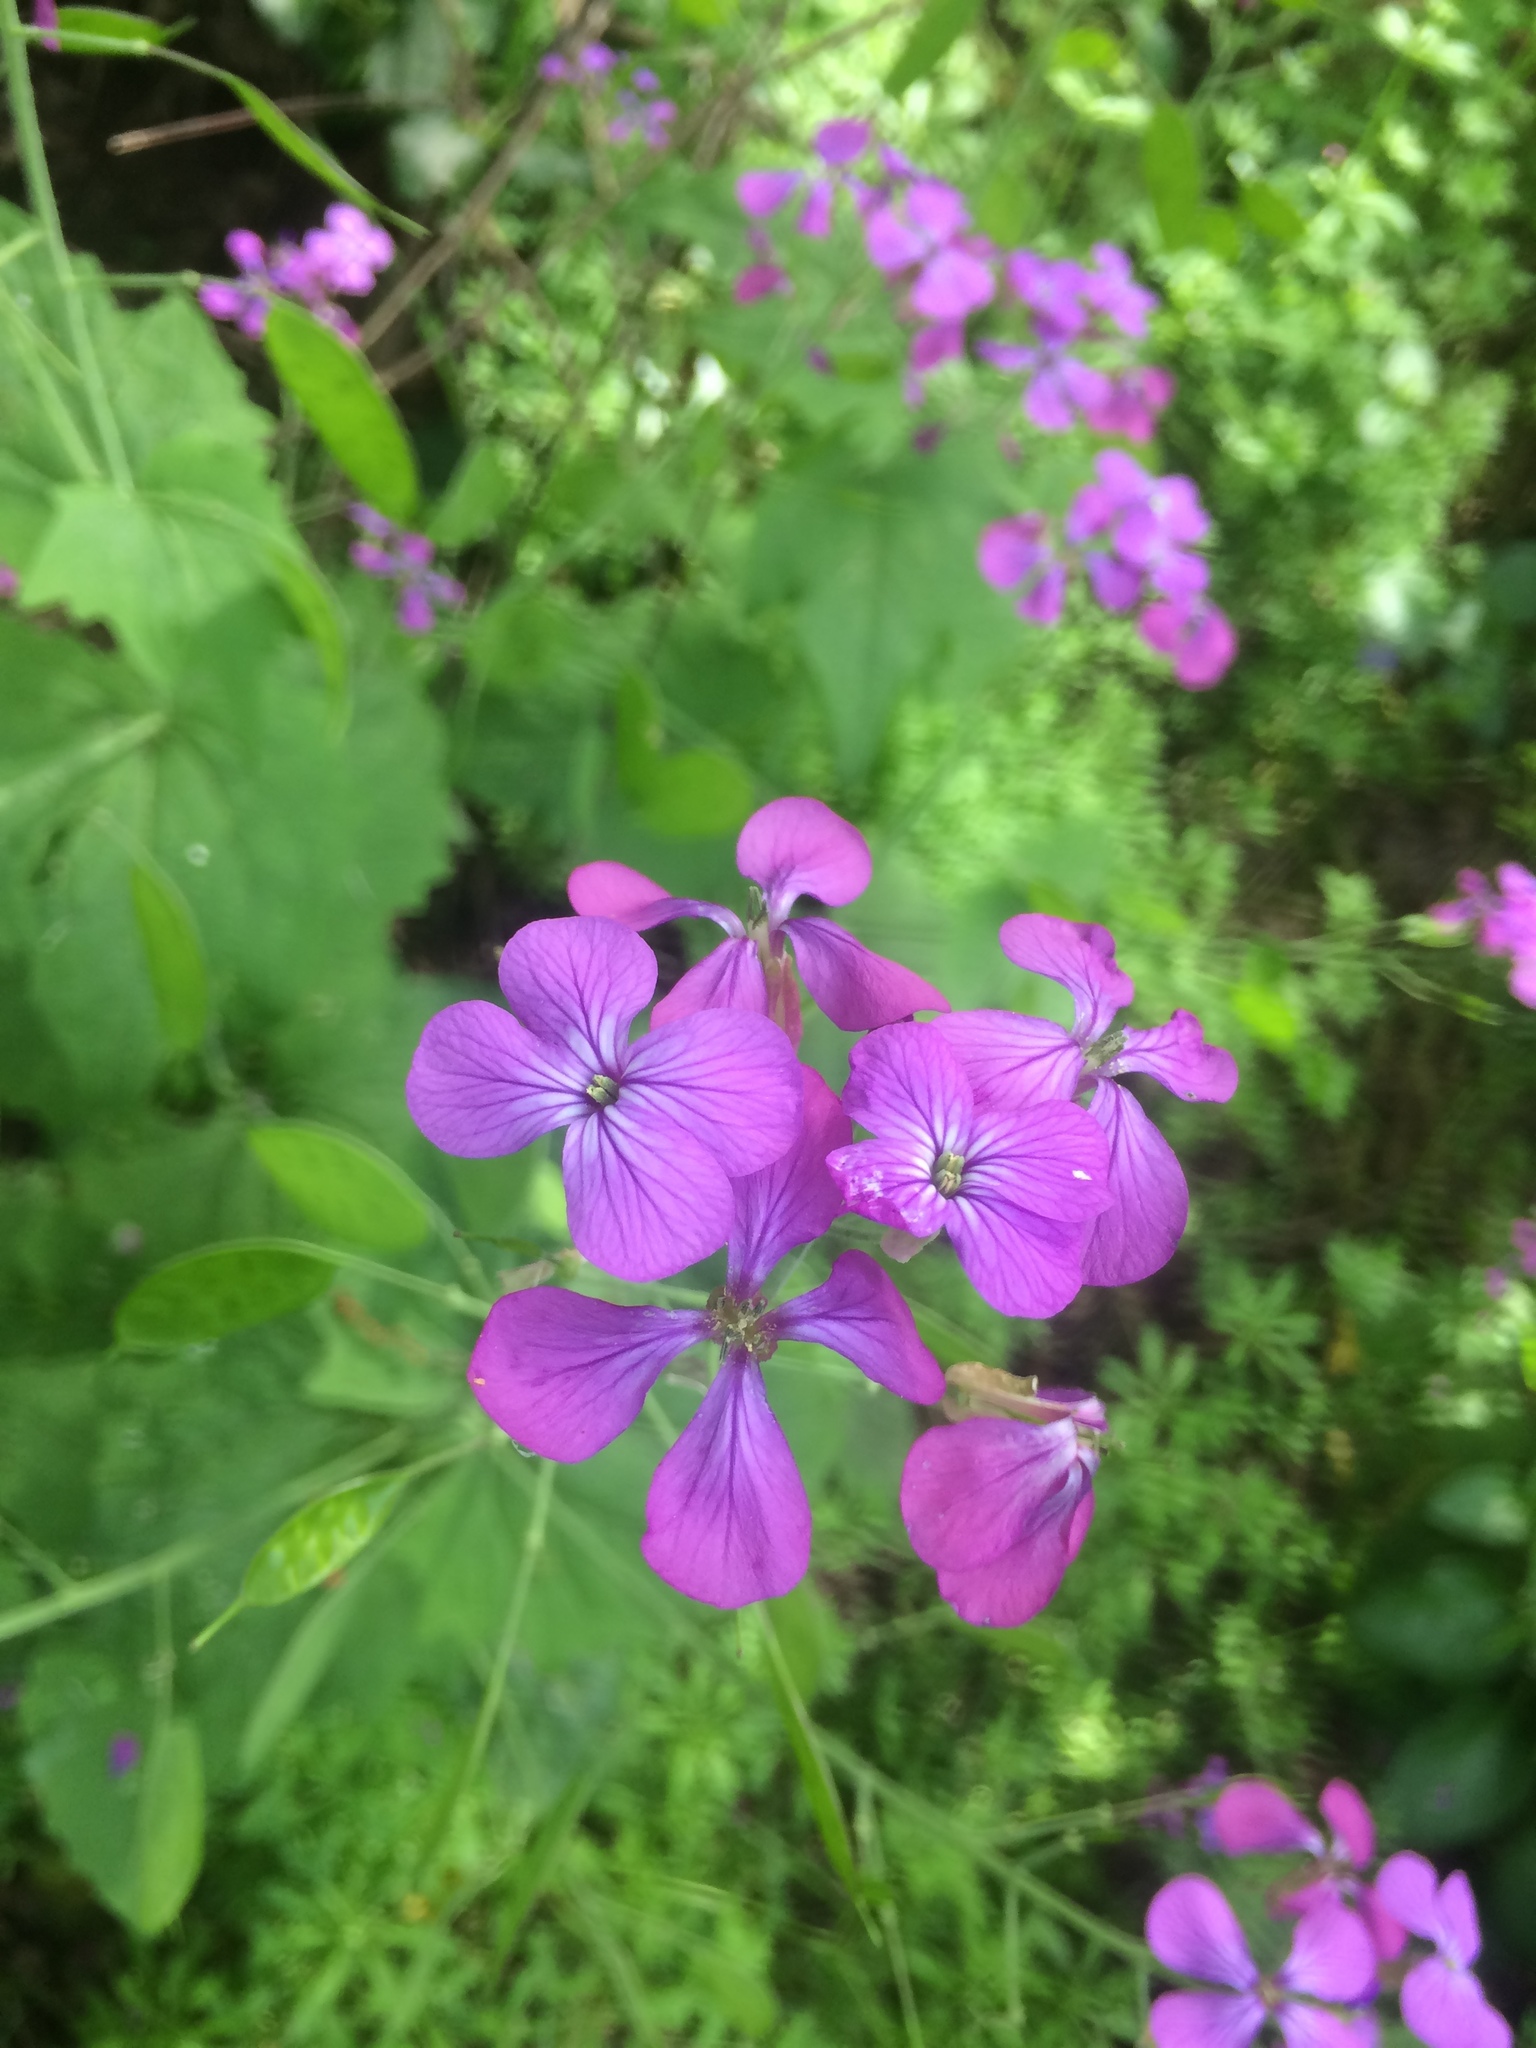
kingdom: Plantae
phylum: Tracheophyta
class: Magnoliopsida
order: Brassicales
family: Brassicaceae
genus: Lunaria
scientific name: Lunaria annua
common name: Honesty
